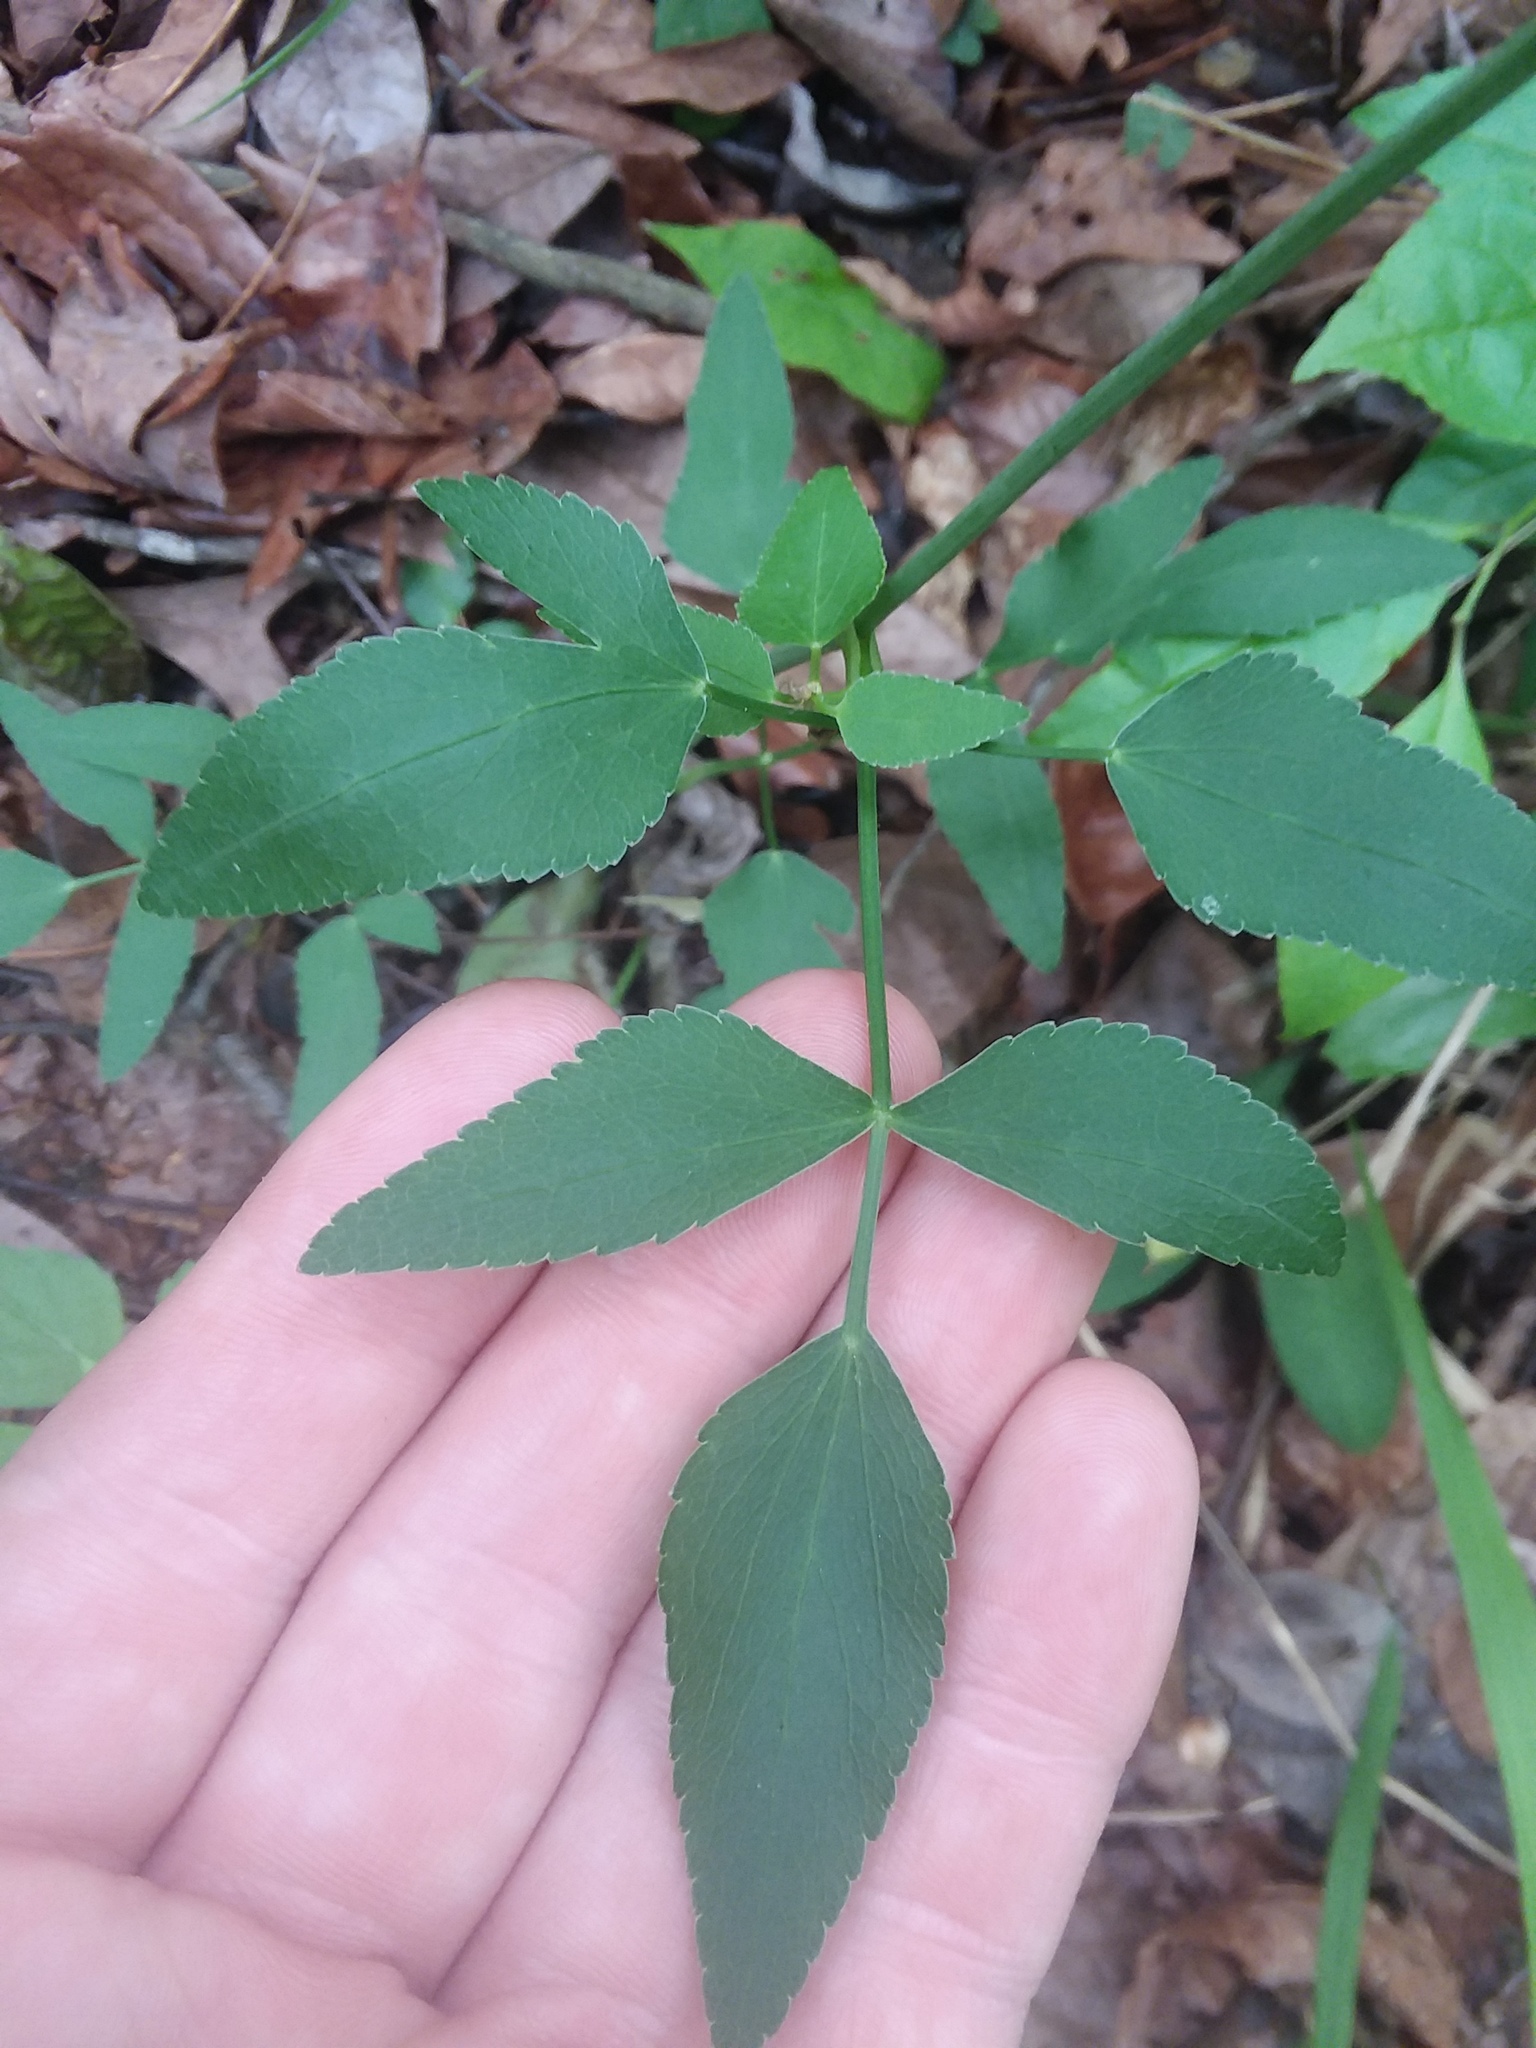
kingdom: Plantae
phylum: Tracheophyta
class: Magnoliopsida
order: Apiales
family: Apiaceae
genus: Thaspium
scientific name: Thaspium trifoliatum
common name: Purple meadow-parsnip
